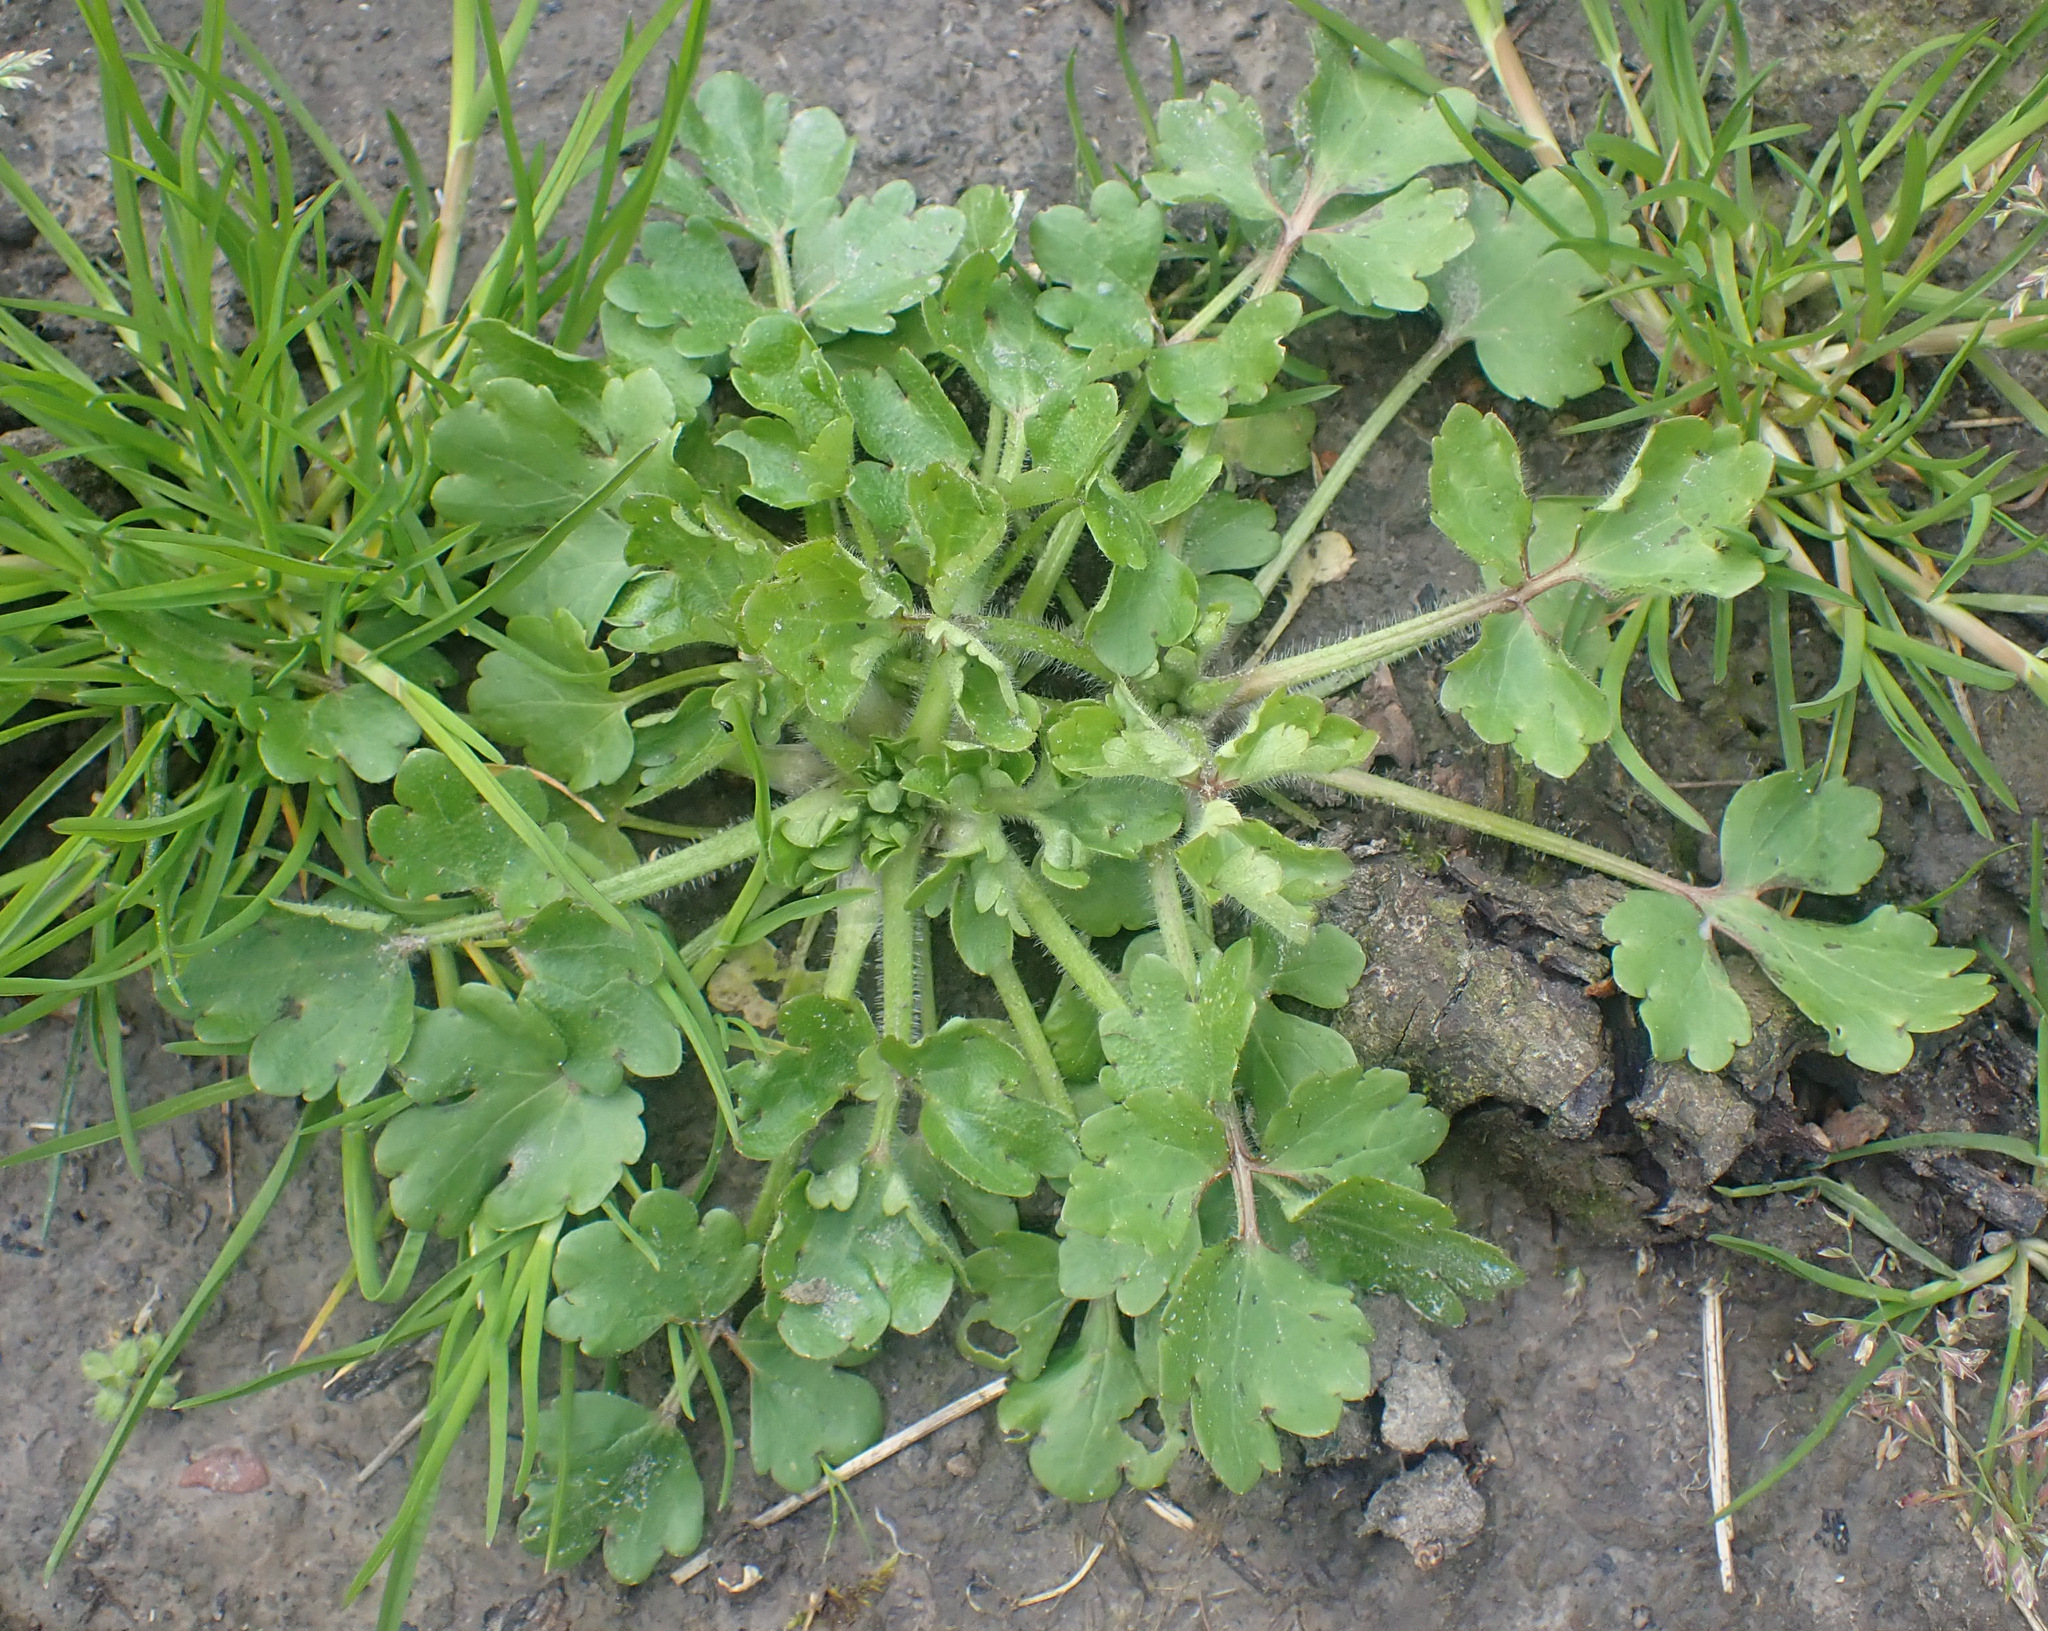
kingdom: Plantae
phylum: Tracheophyta
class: Magnoliopsida
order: Ranunculales
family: Ranunculaceae
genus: Ranunculus
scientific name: Ranunculus sardous
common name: Hairy buttercup
